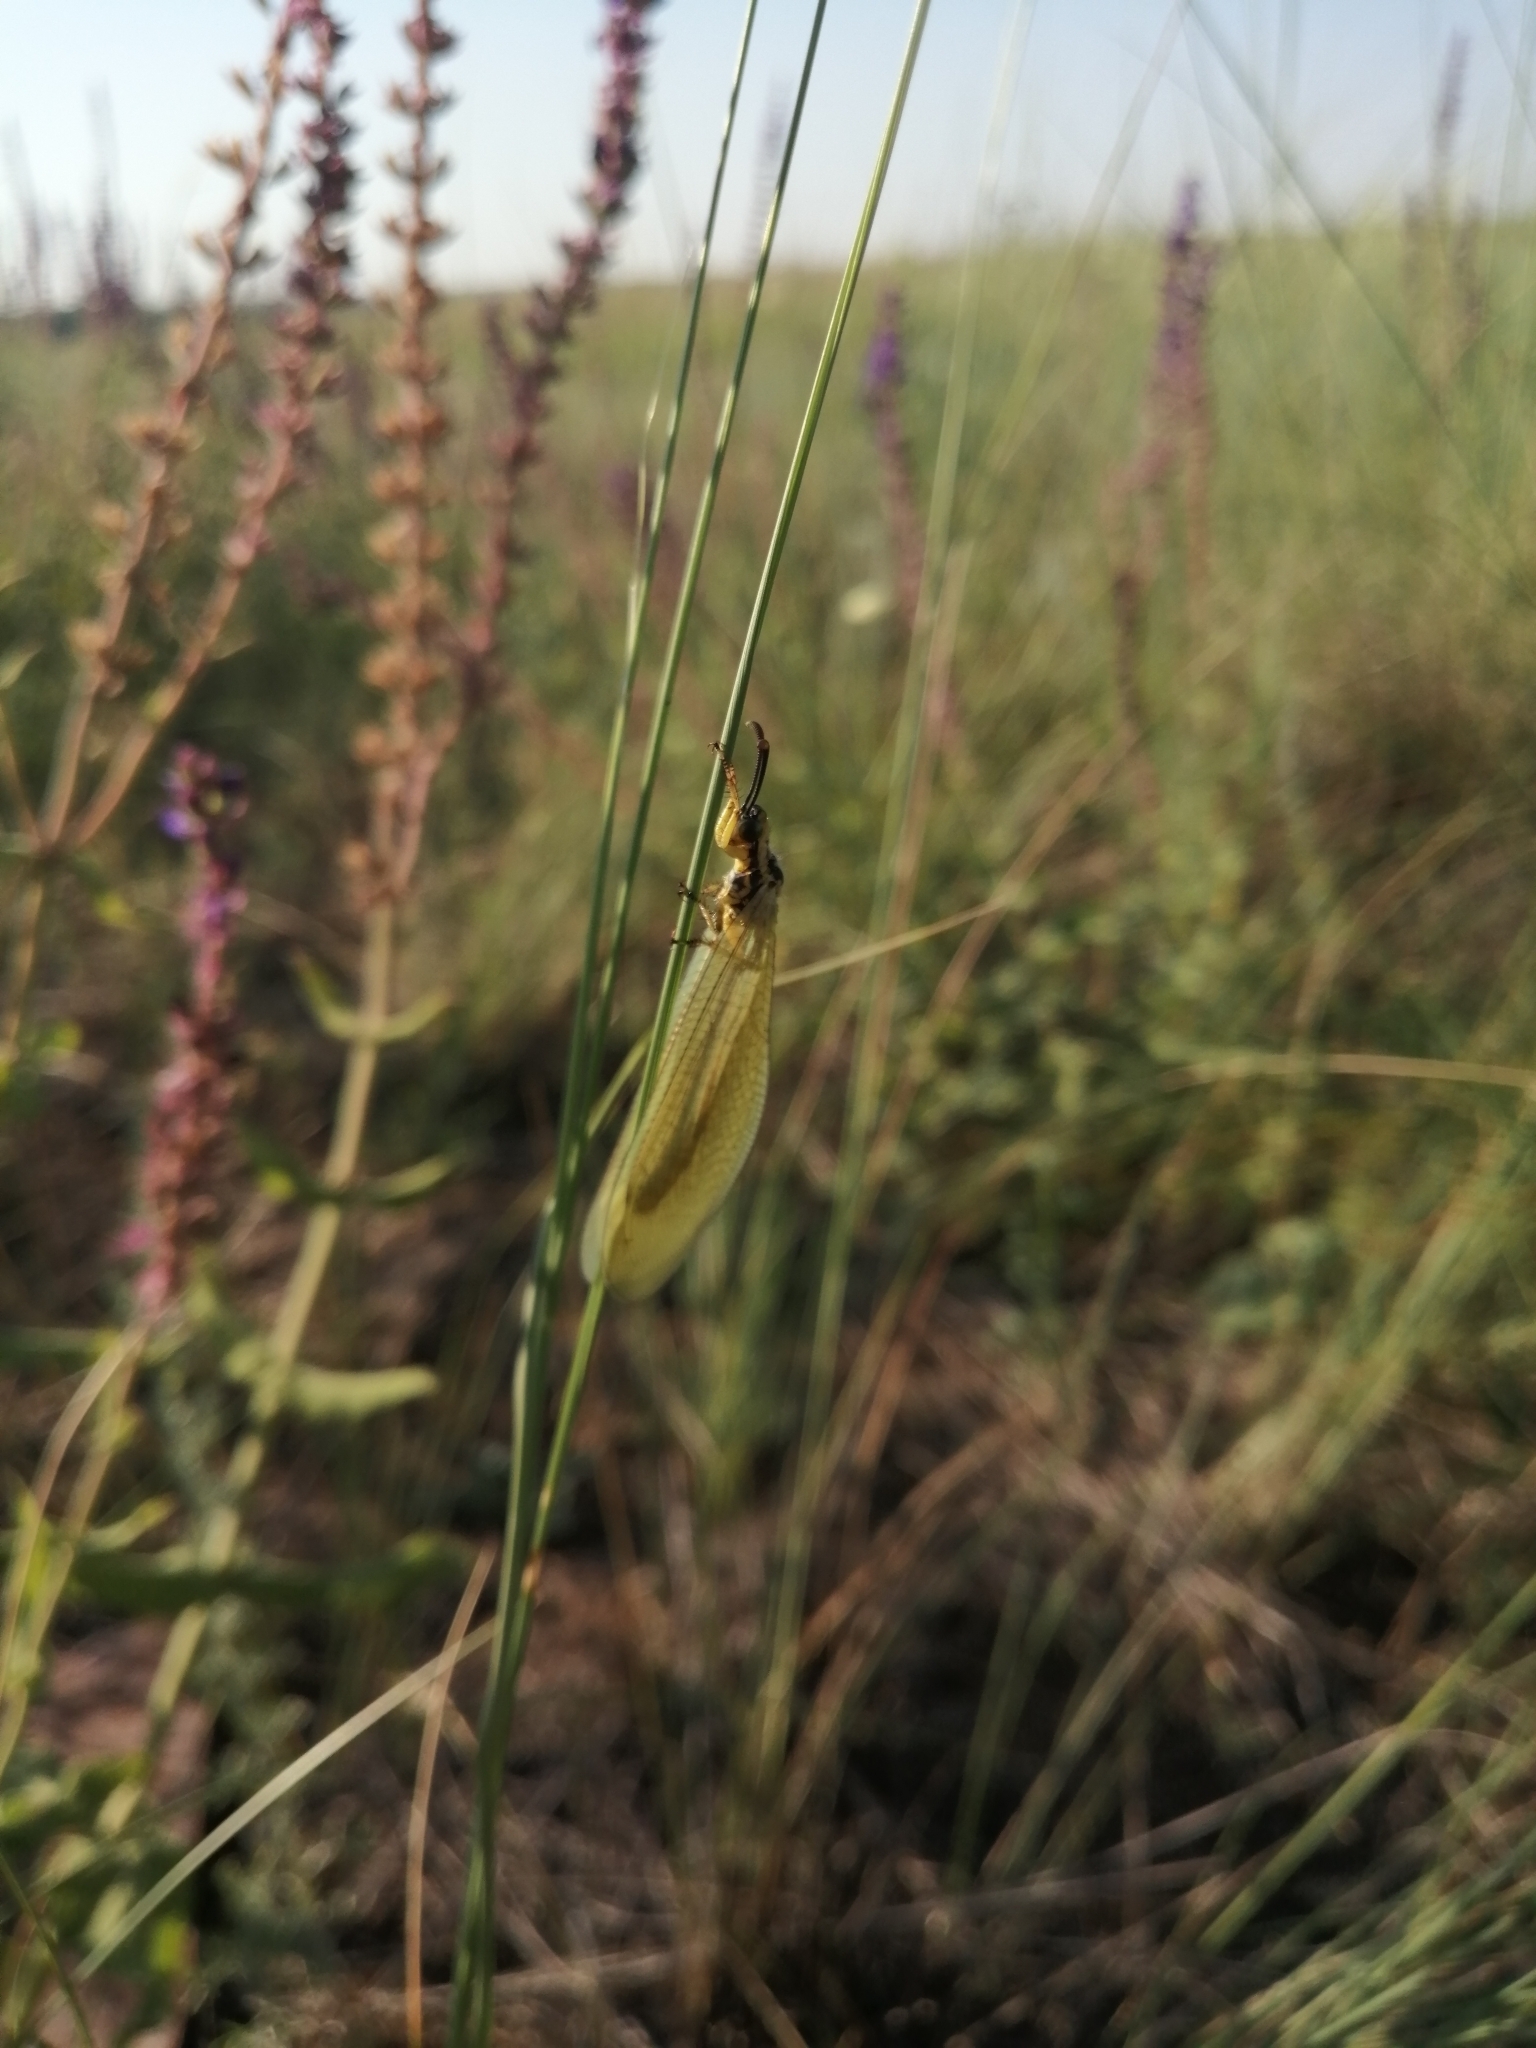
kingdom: Animalia
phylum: Arthropoda
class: Insecta
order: Neuroptera
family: Myrmeleontidae
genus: Myrmecaelurus
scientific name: Myrmecaelurus trigrammus
